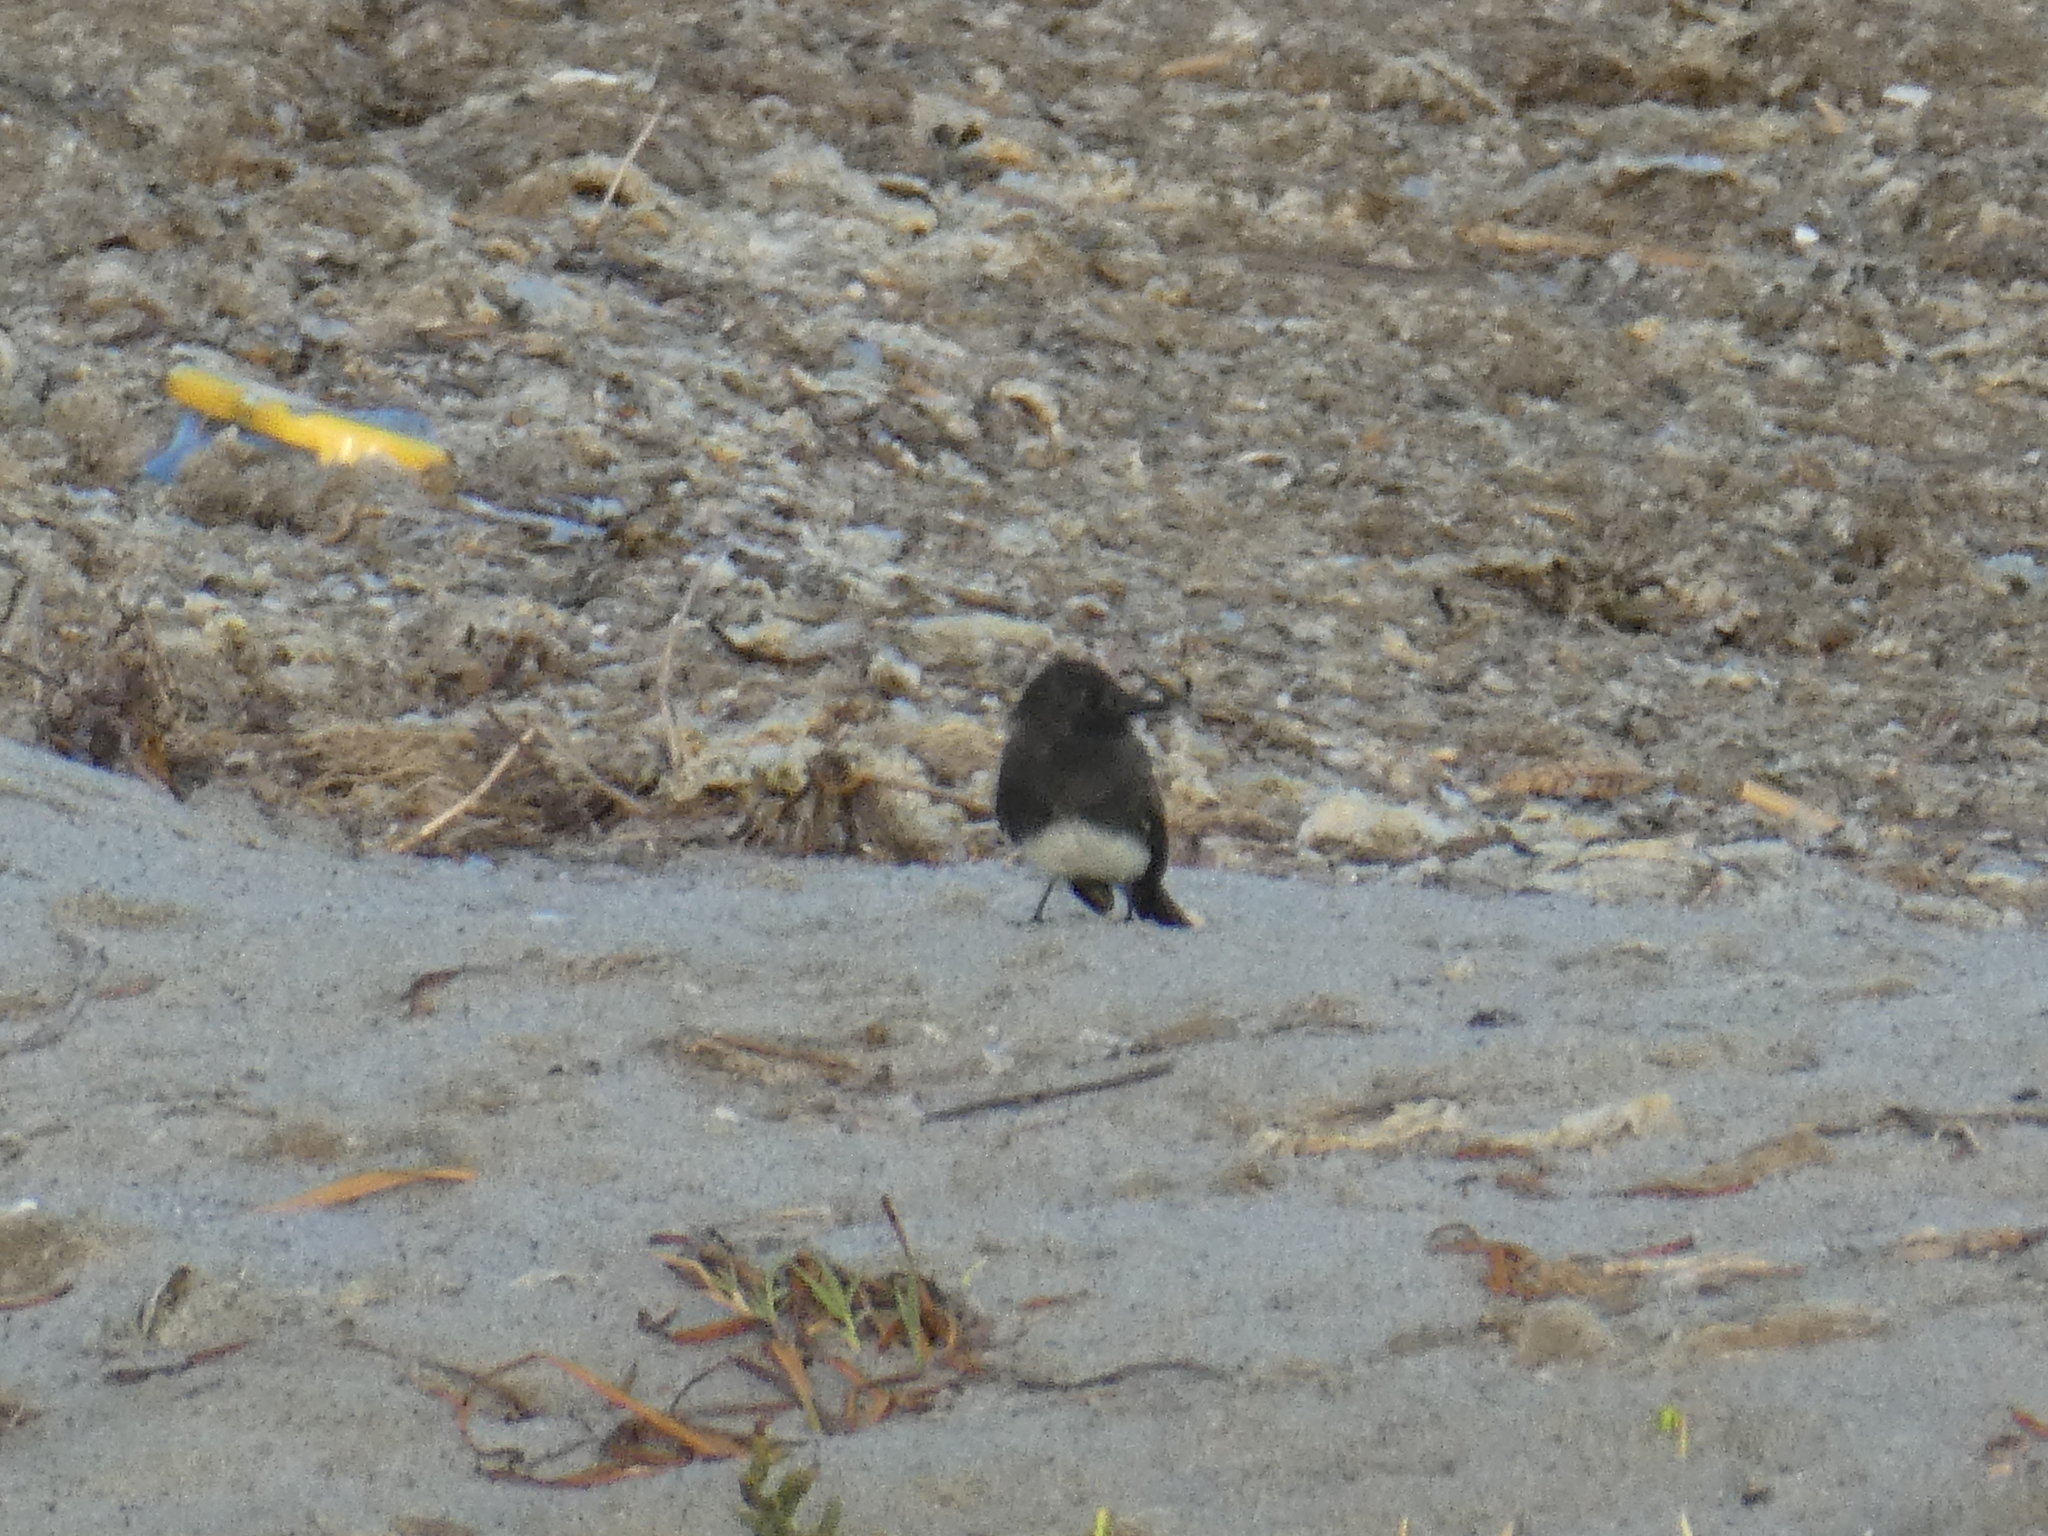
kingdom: Animalia
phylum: Chordata
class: Aves
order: Passeriformes
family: Tyrannidae
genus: Sayornis
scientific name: Sayornis nigricans
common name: Black phoebe
